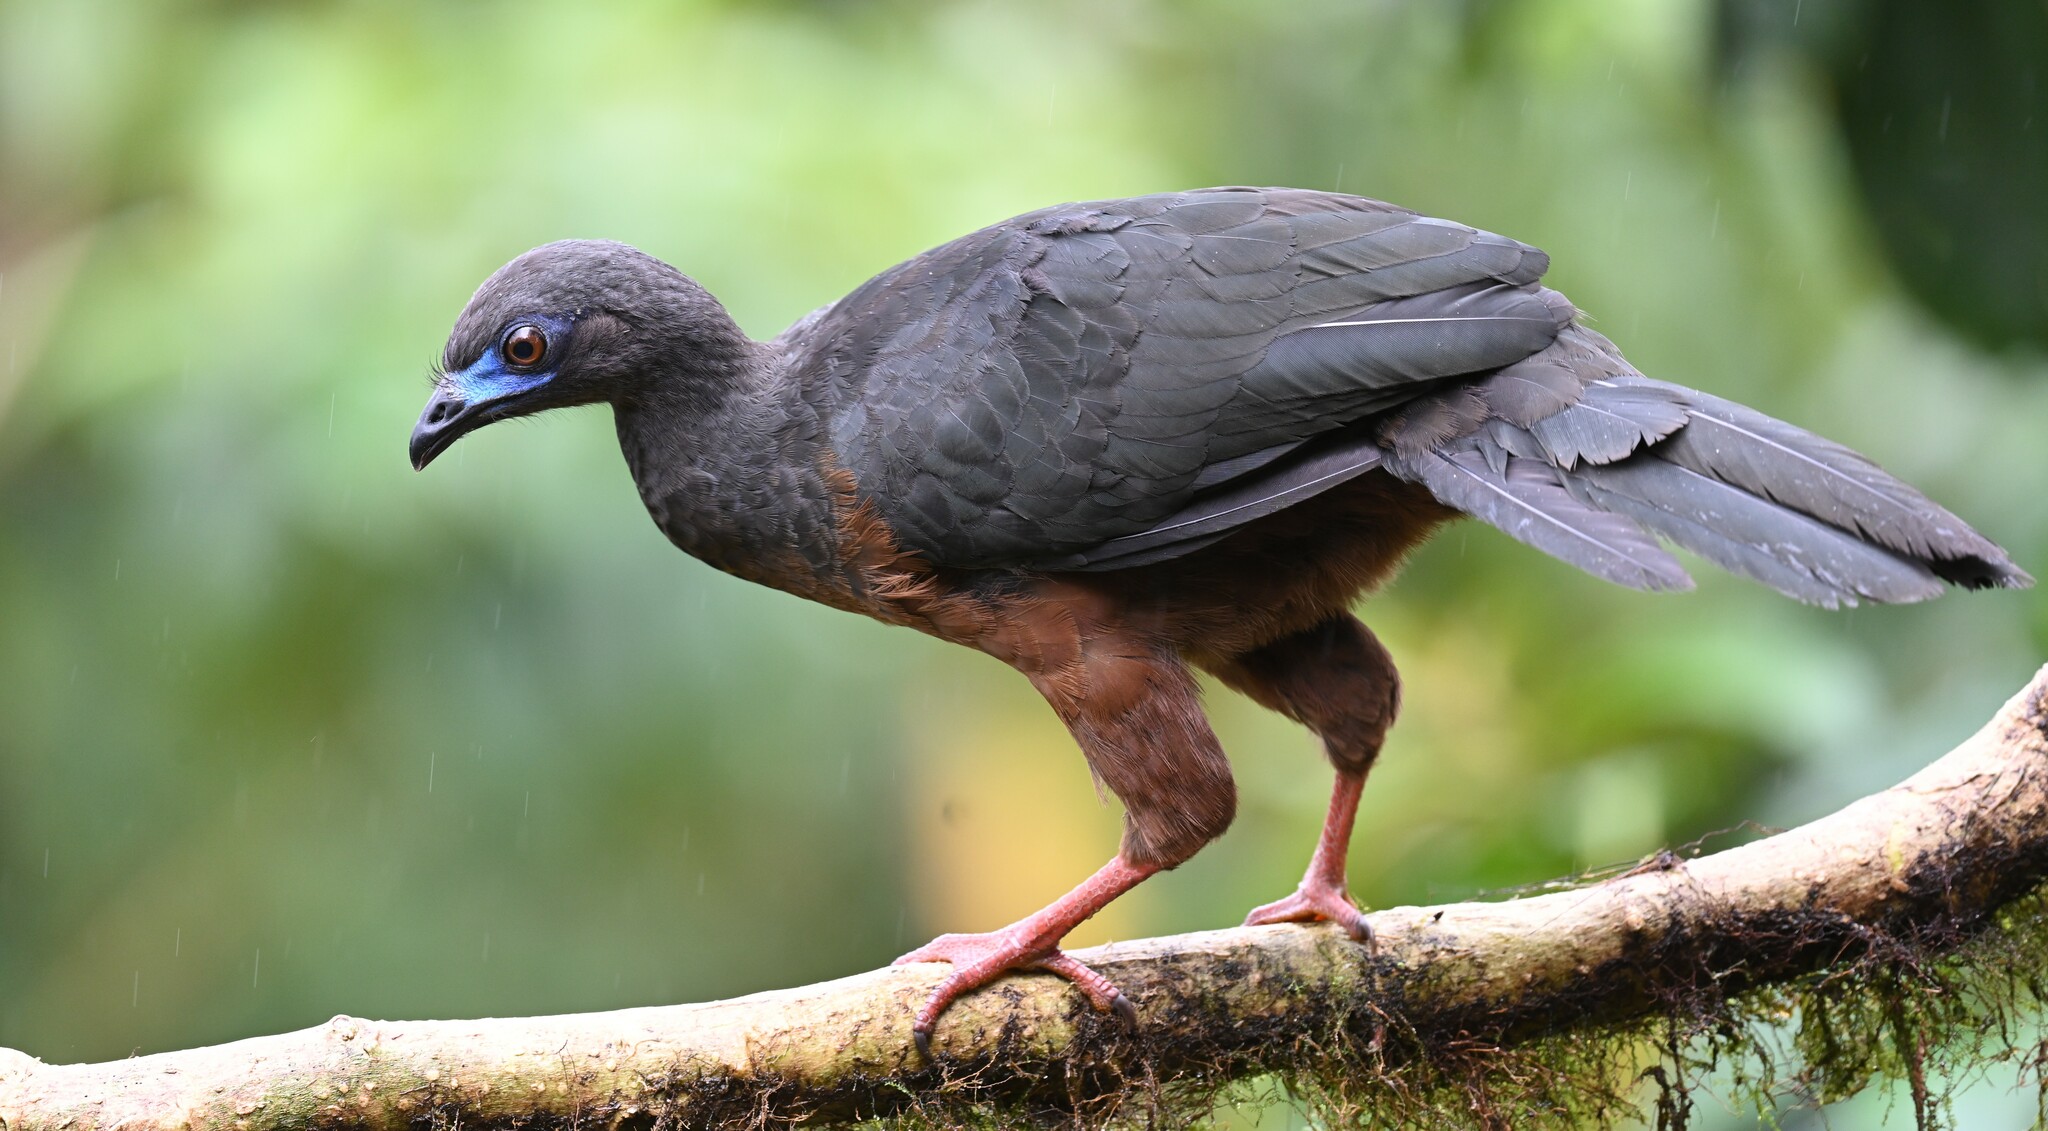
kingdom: Animalia
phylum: Chordata
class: Aves
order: Galliformes
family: Cracidae
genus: Chamaepetes
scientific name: Chamaepetes goudotii
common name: Sickle-winged guan
